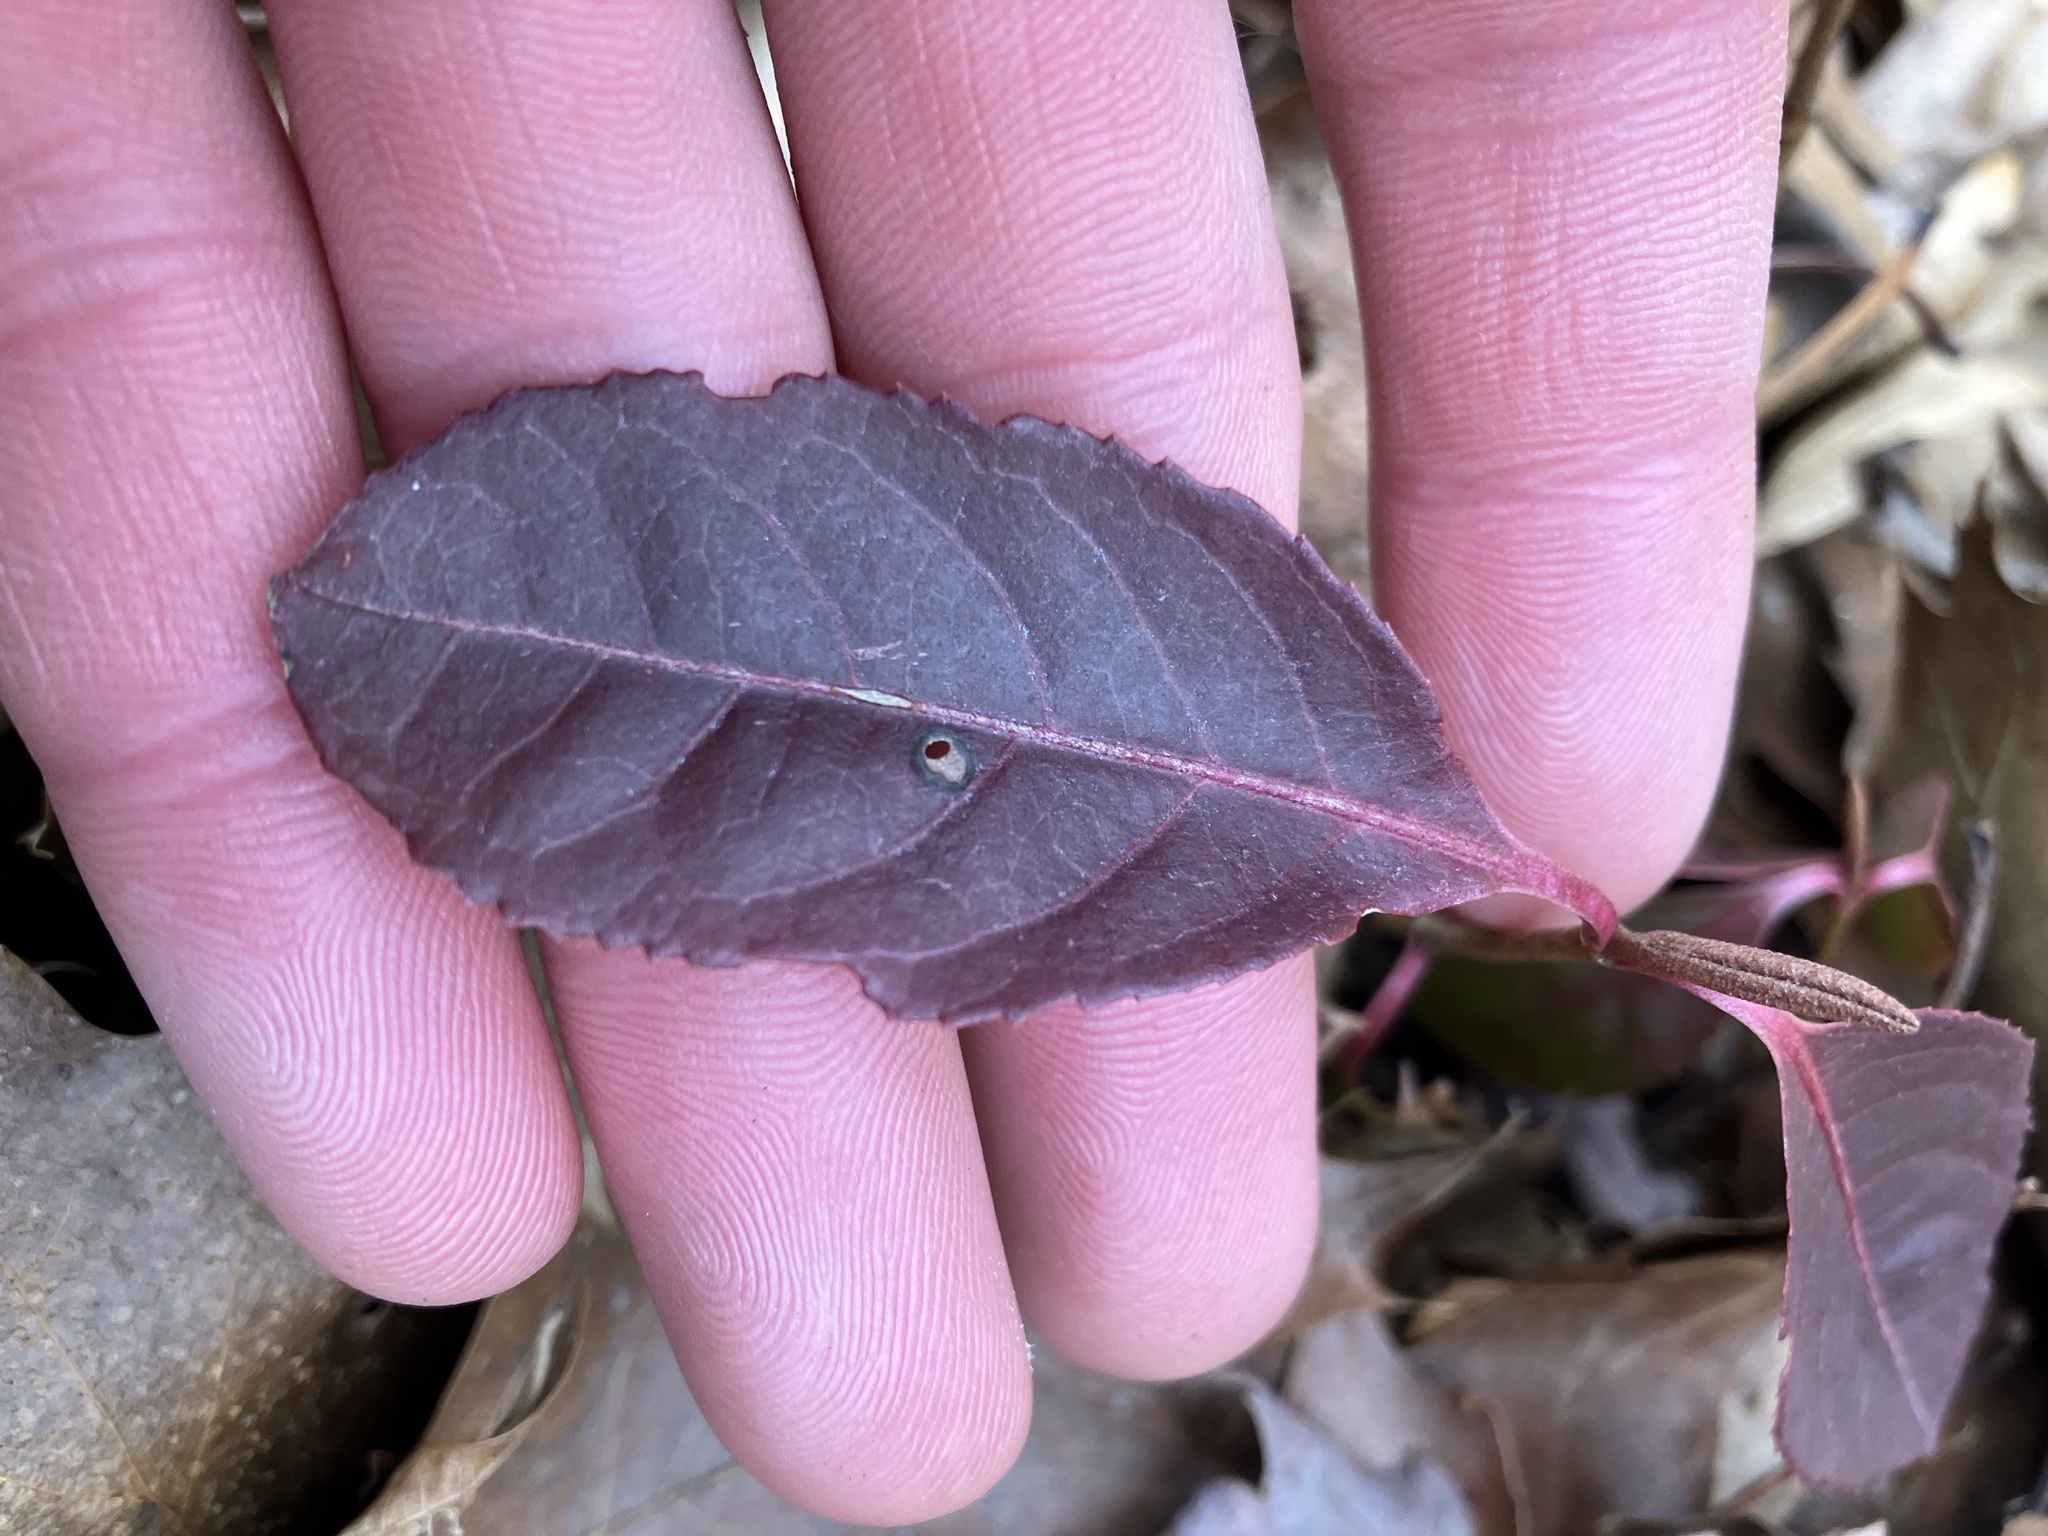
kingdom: Plantae
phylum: Tracheophyta
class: Magnoliopsida
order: Dipsacales
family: Viburnaceae
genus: Viburnum
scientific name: Viburnum cassinoides
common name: Swamp haw
